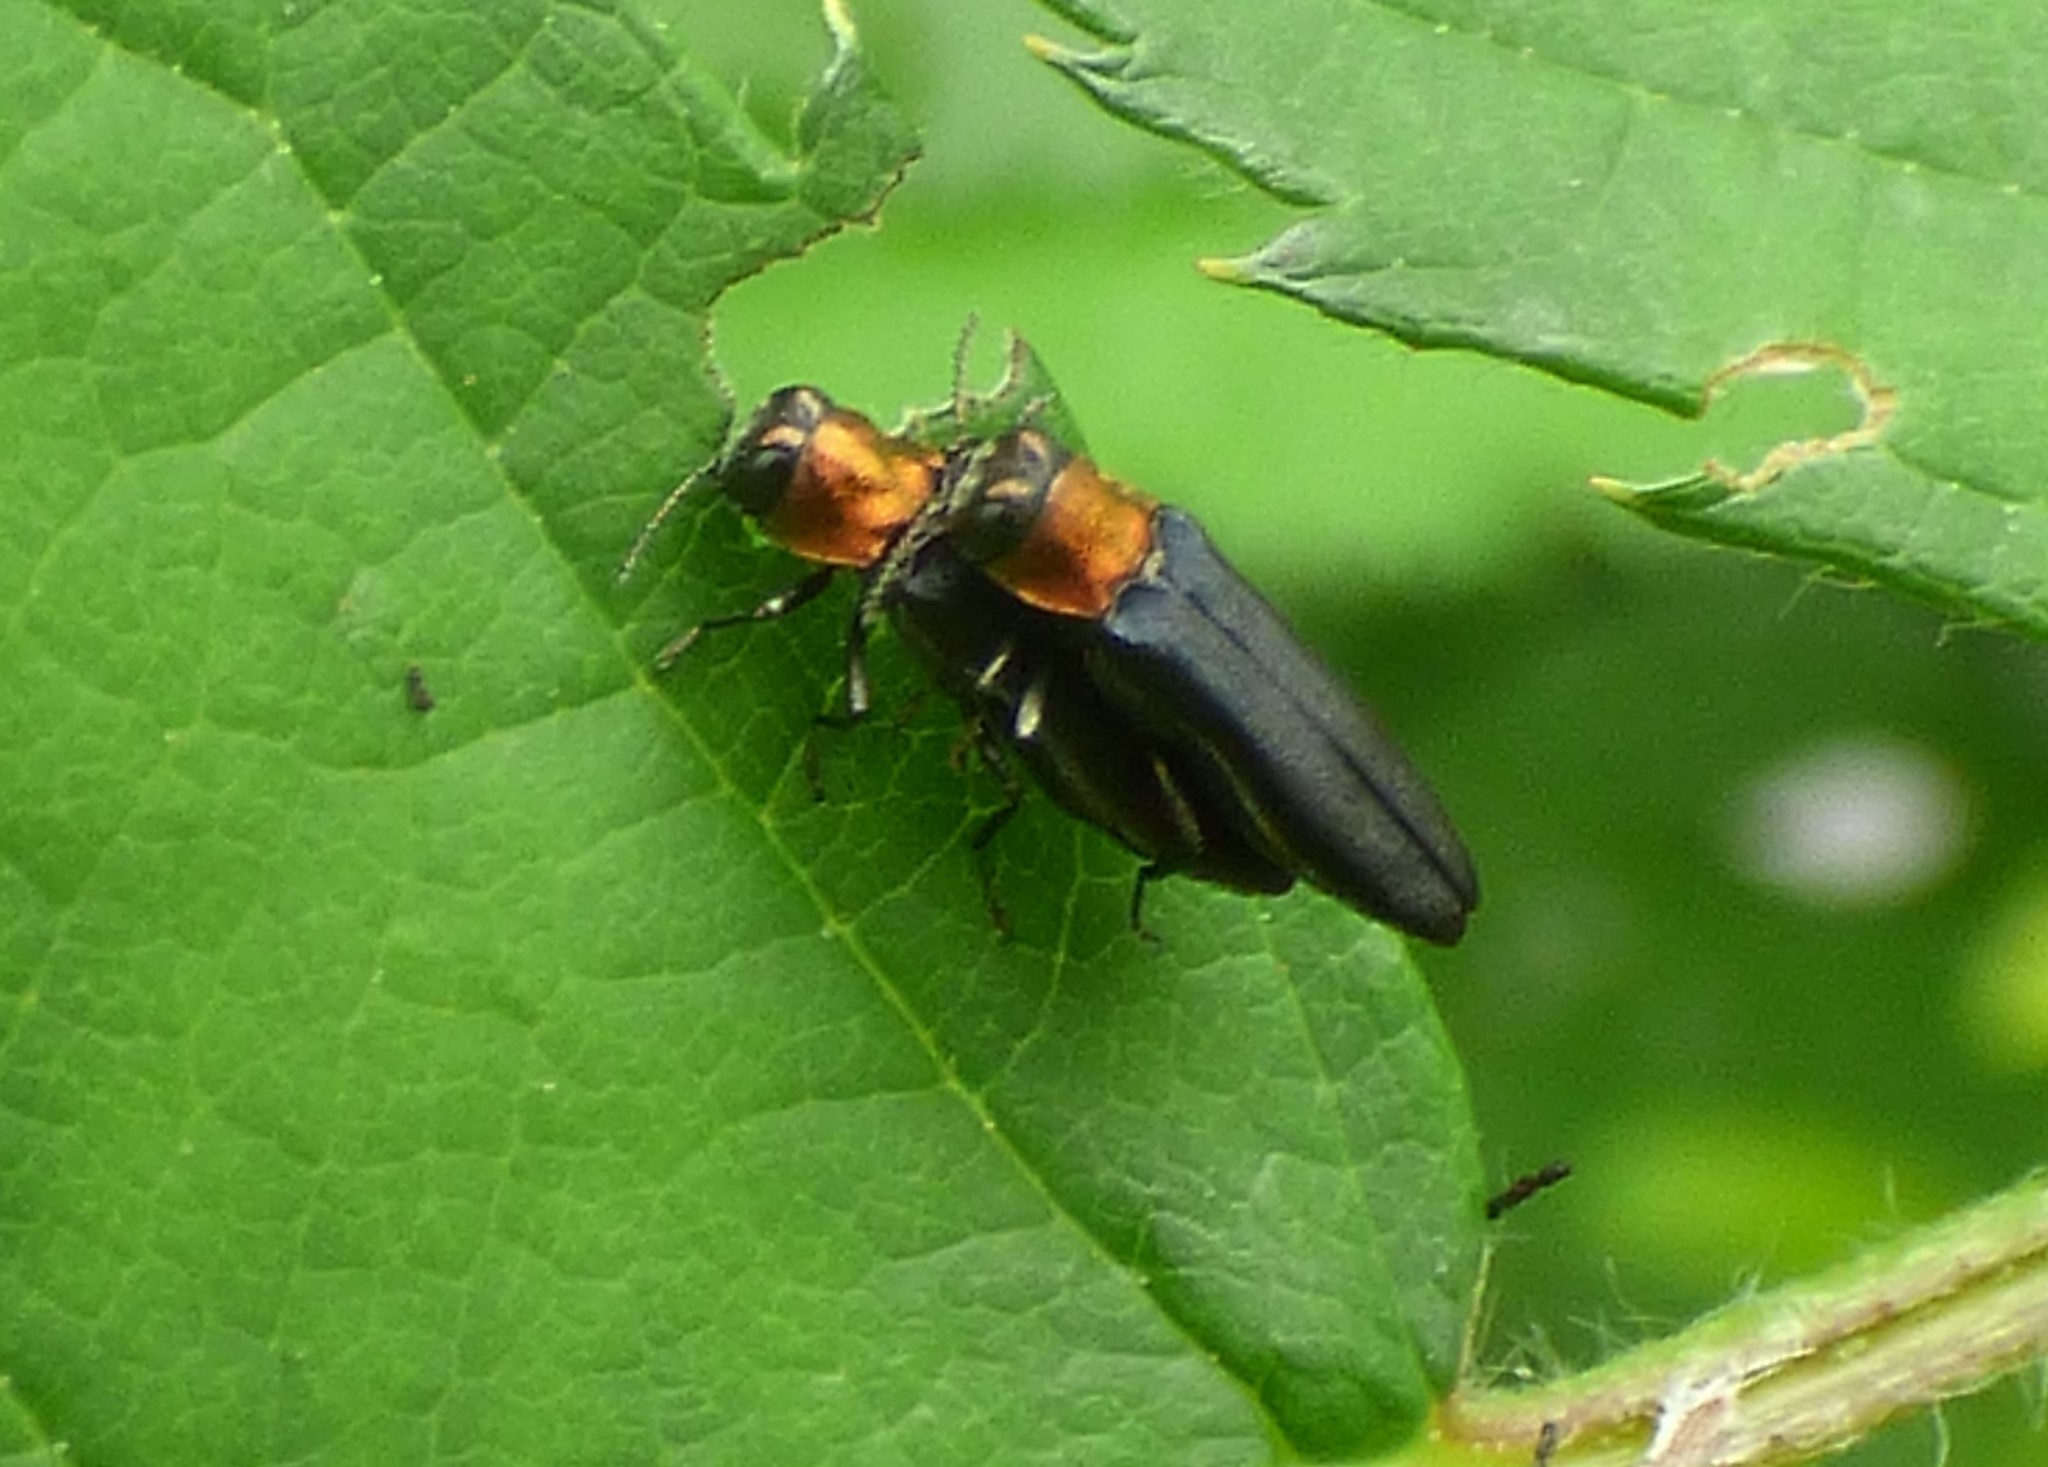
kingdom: Animalia
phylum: Arthropoda
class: Insecta
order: Coleoptera
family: Buprestidae
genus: Agrilus
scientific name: Agrilus ruficollis
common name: Red-necked cane borer beetle
